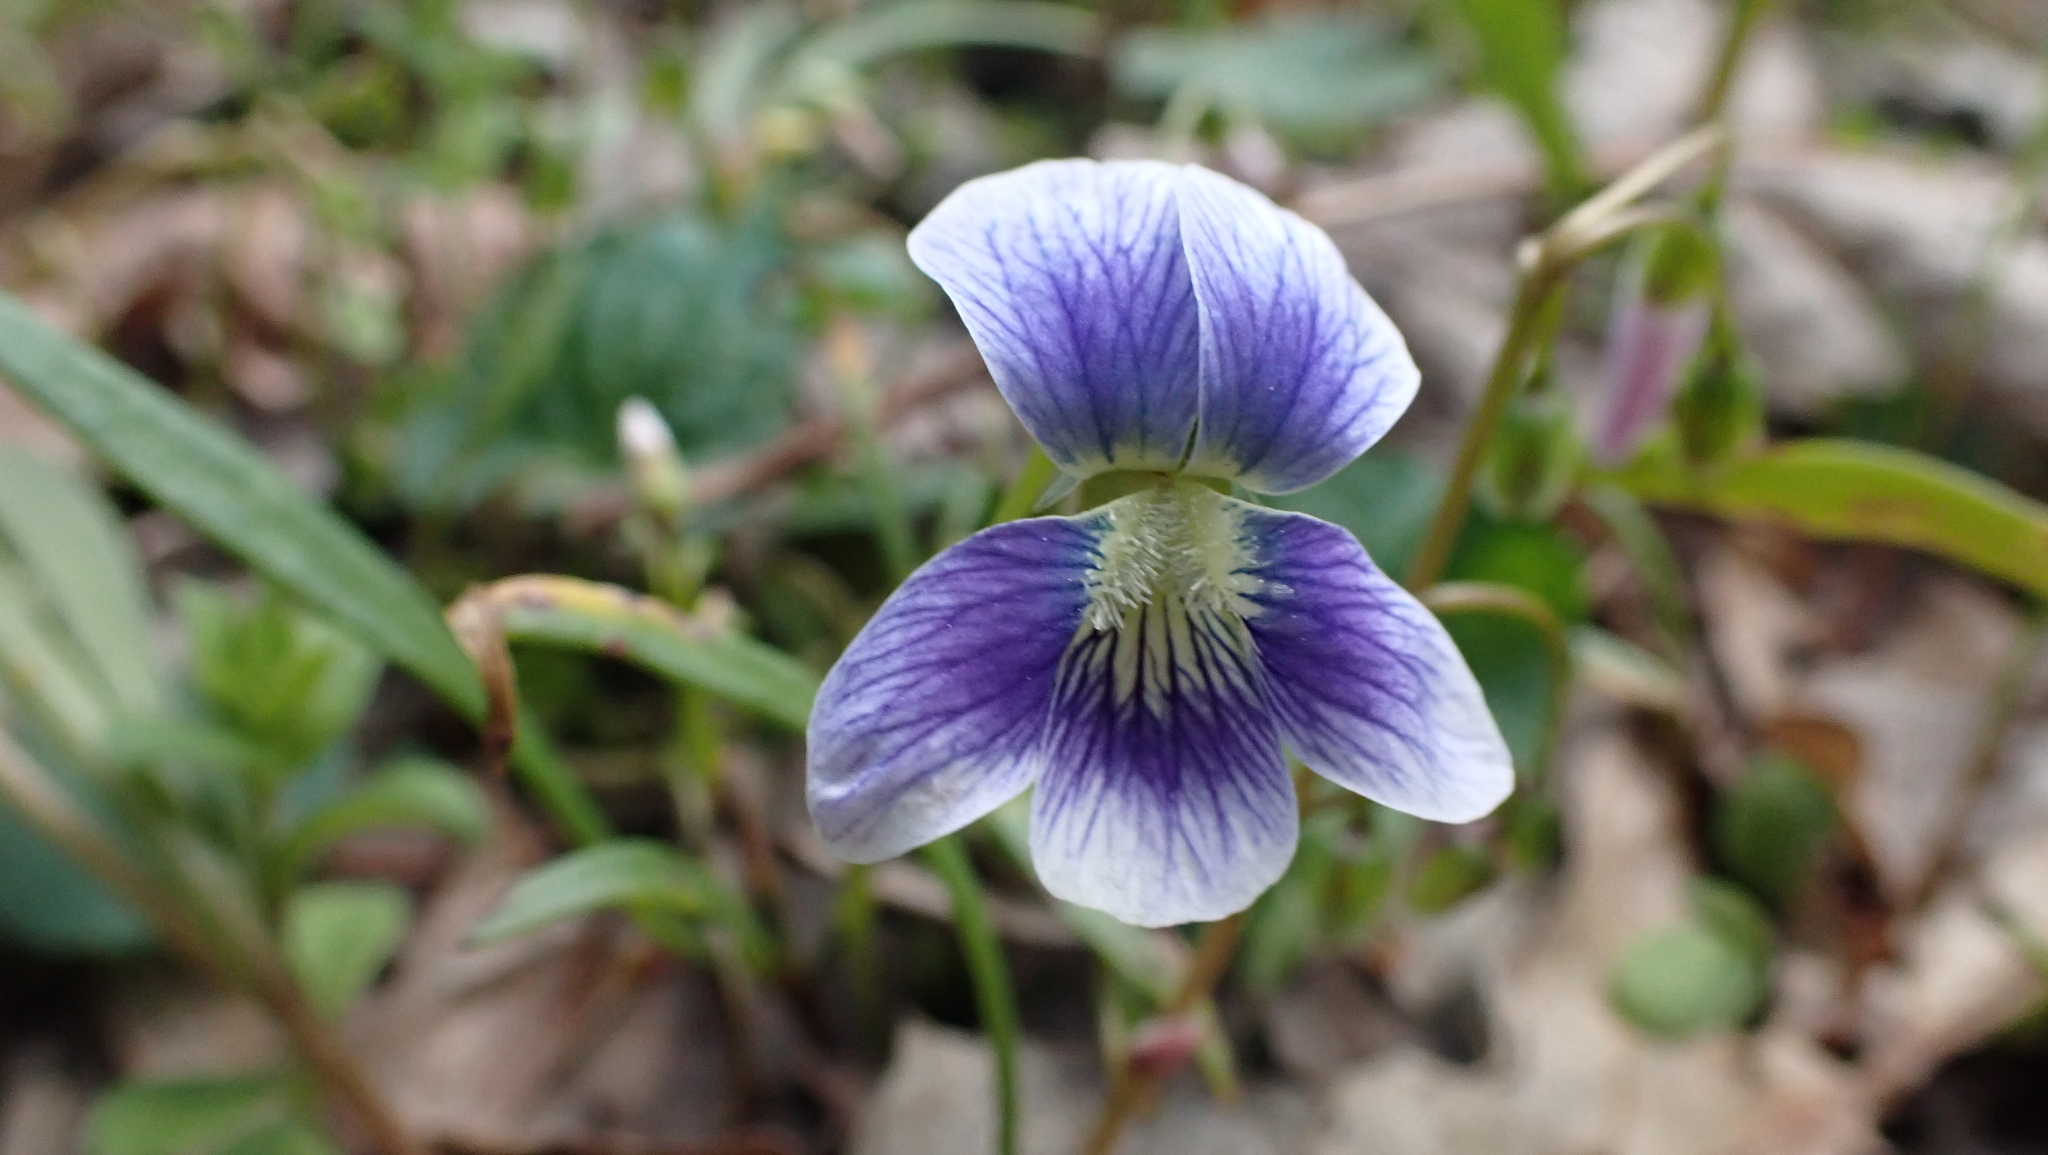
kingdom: Plantae
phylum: Tracheophyta
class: Magnoliopsida
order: Malpighiales
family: Violaceae
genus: Viola
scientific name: Viola sororia
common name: Dooryard violet
